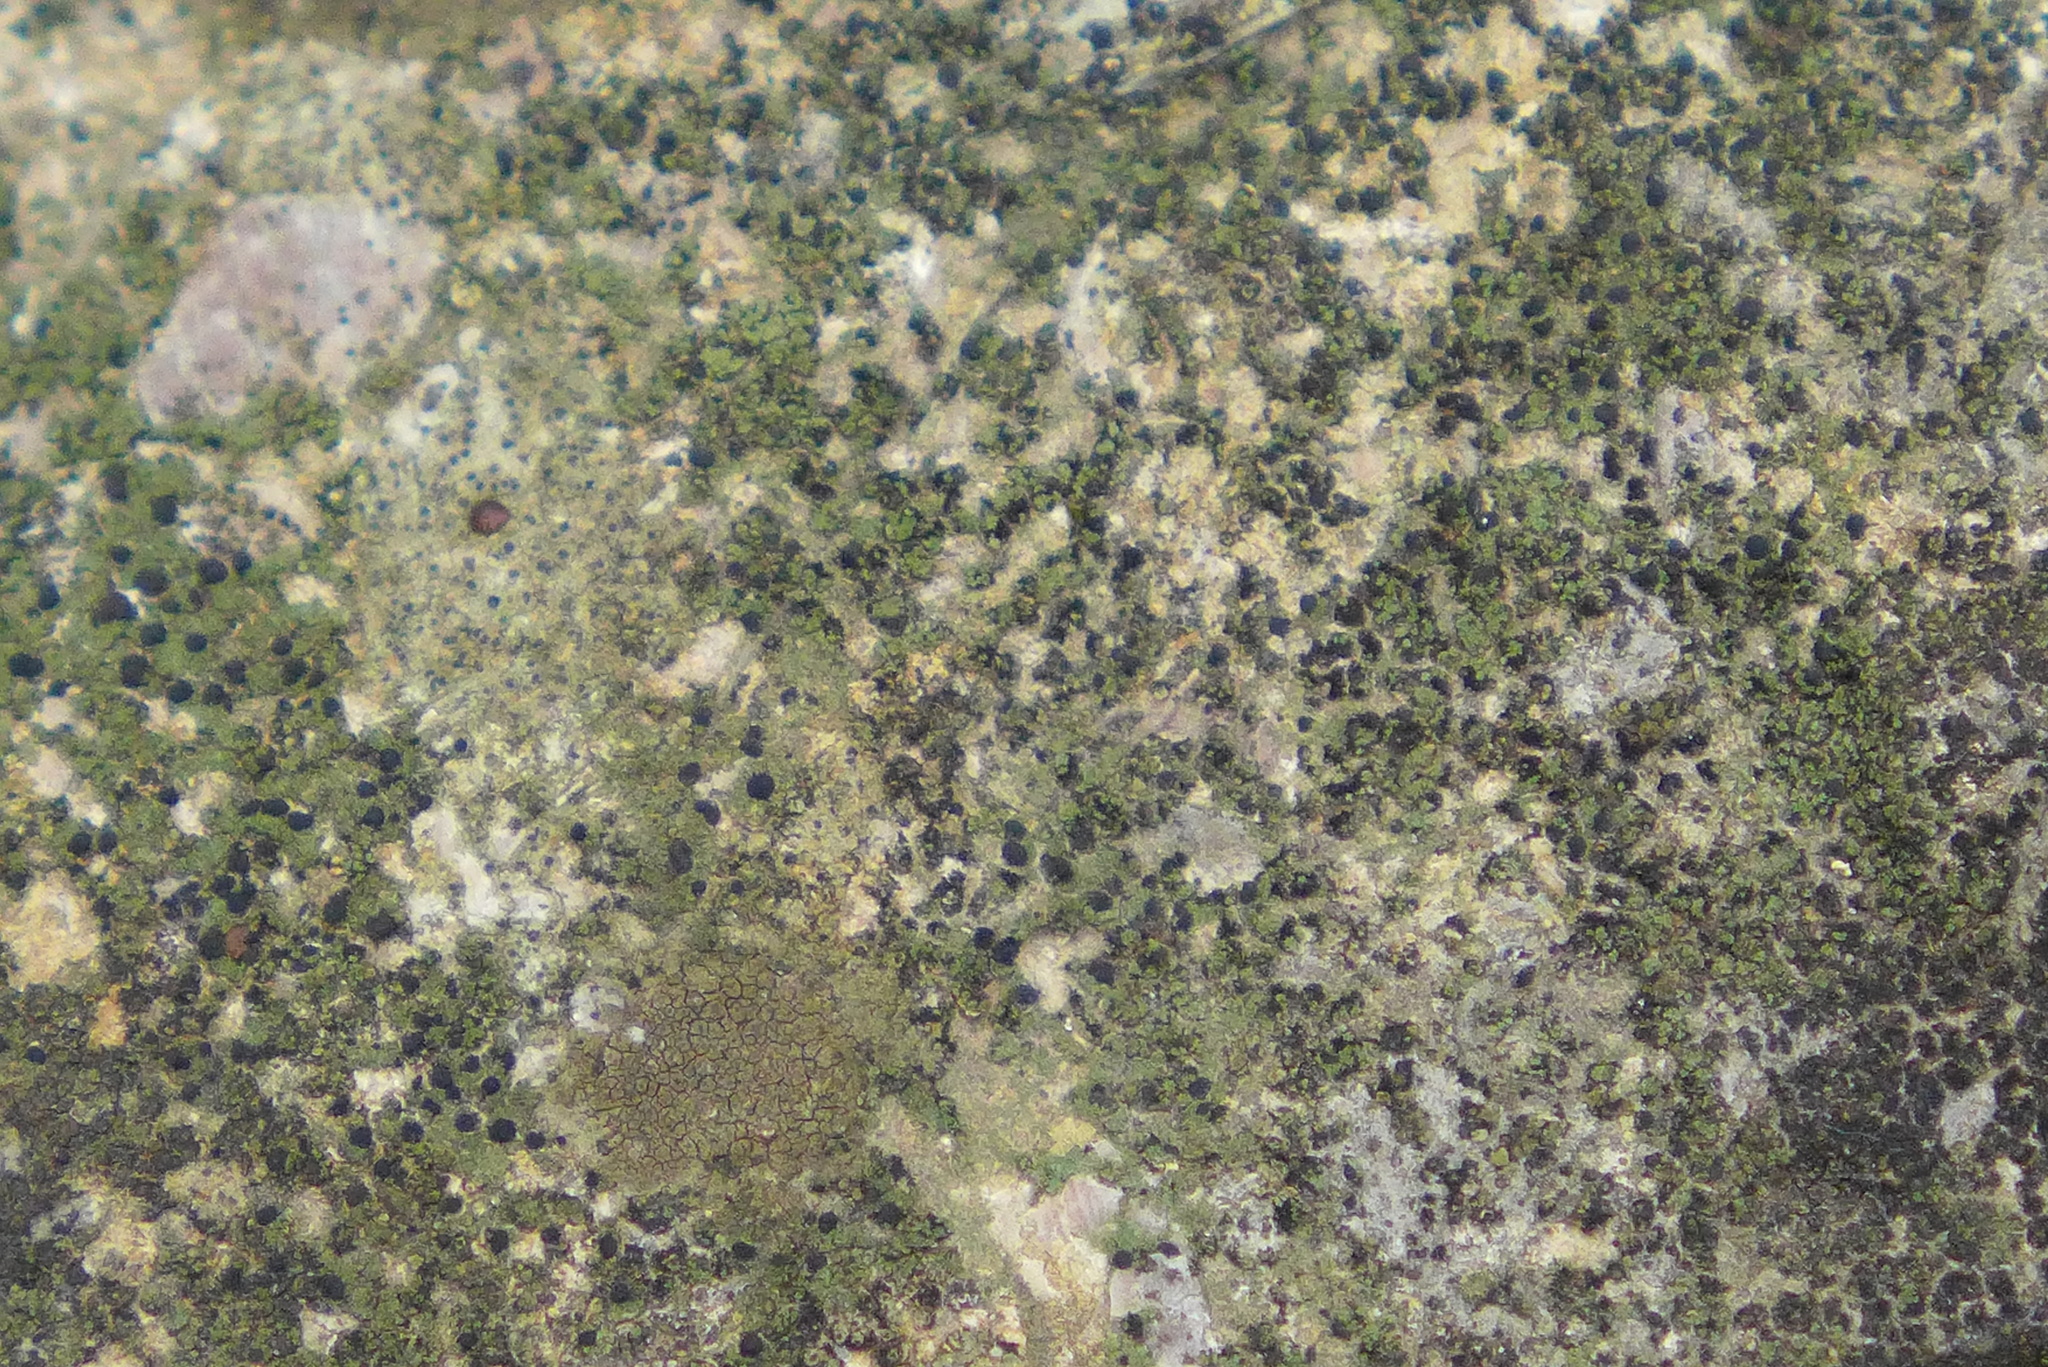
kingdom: Fungi
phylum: Ascomycota
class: Lecanoromycetes
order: Lecanorales
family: Ramalinaceae
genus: Bacidia
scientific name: Bacidia
